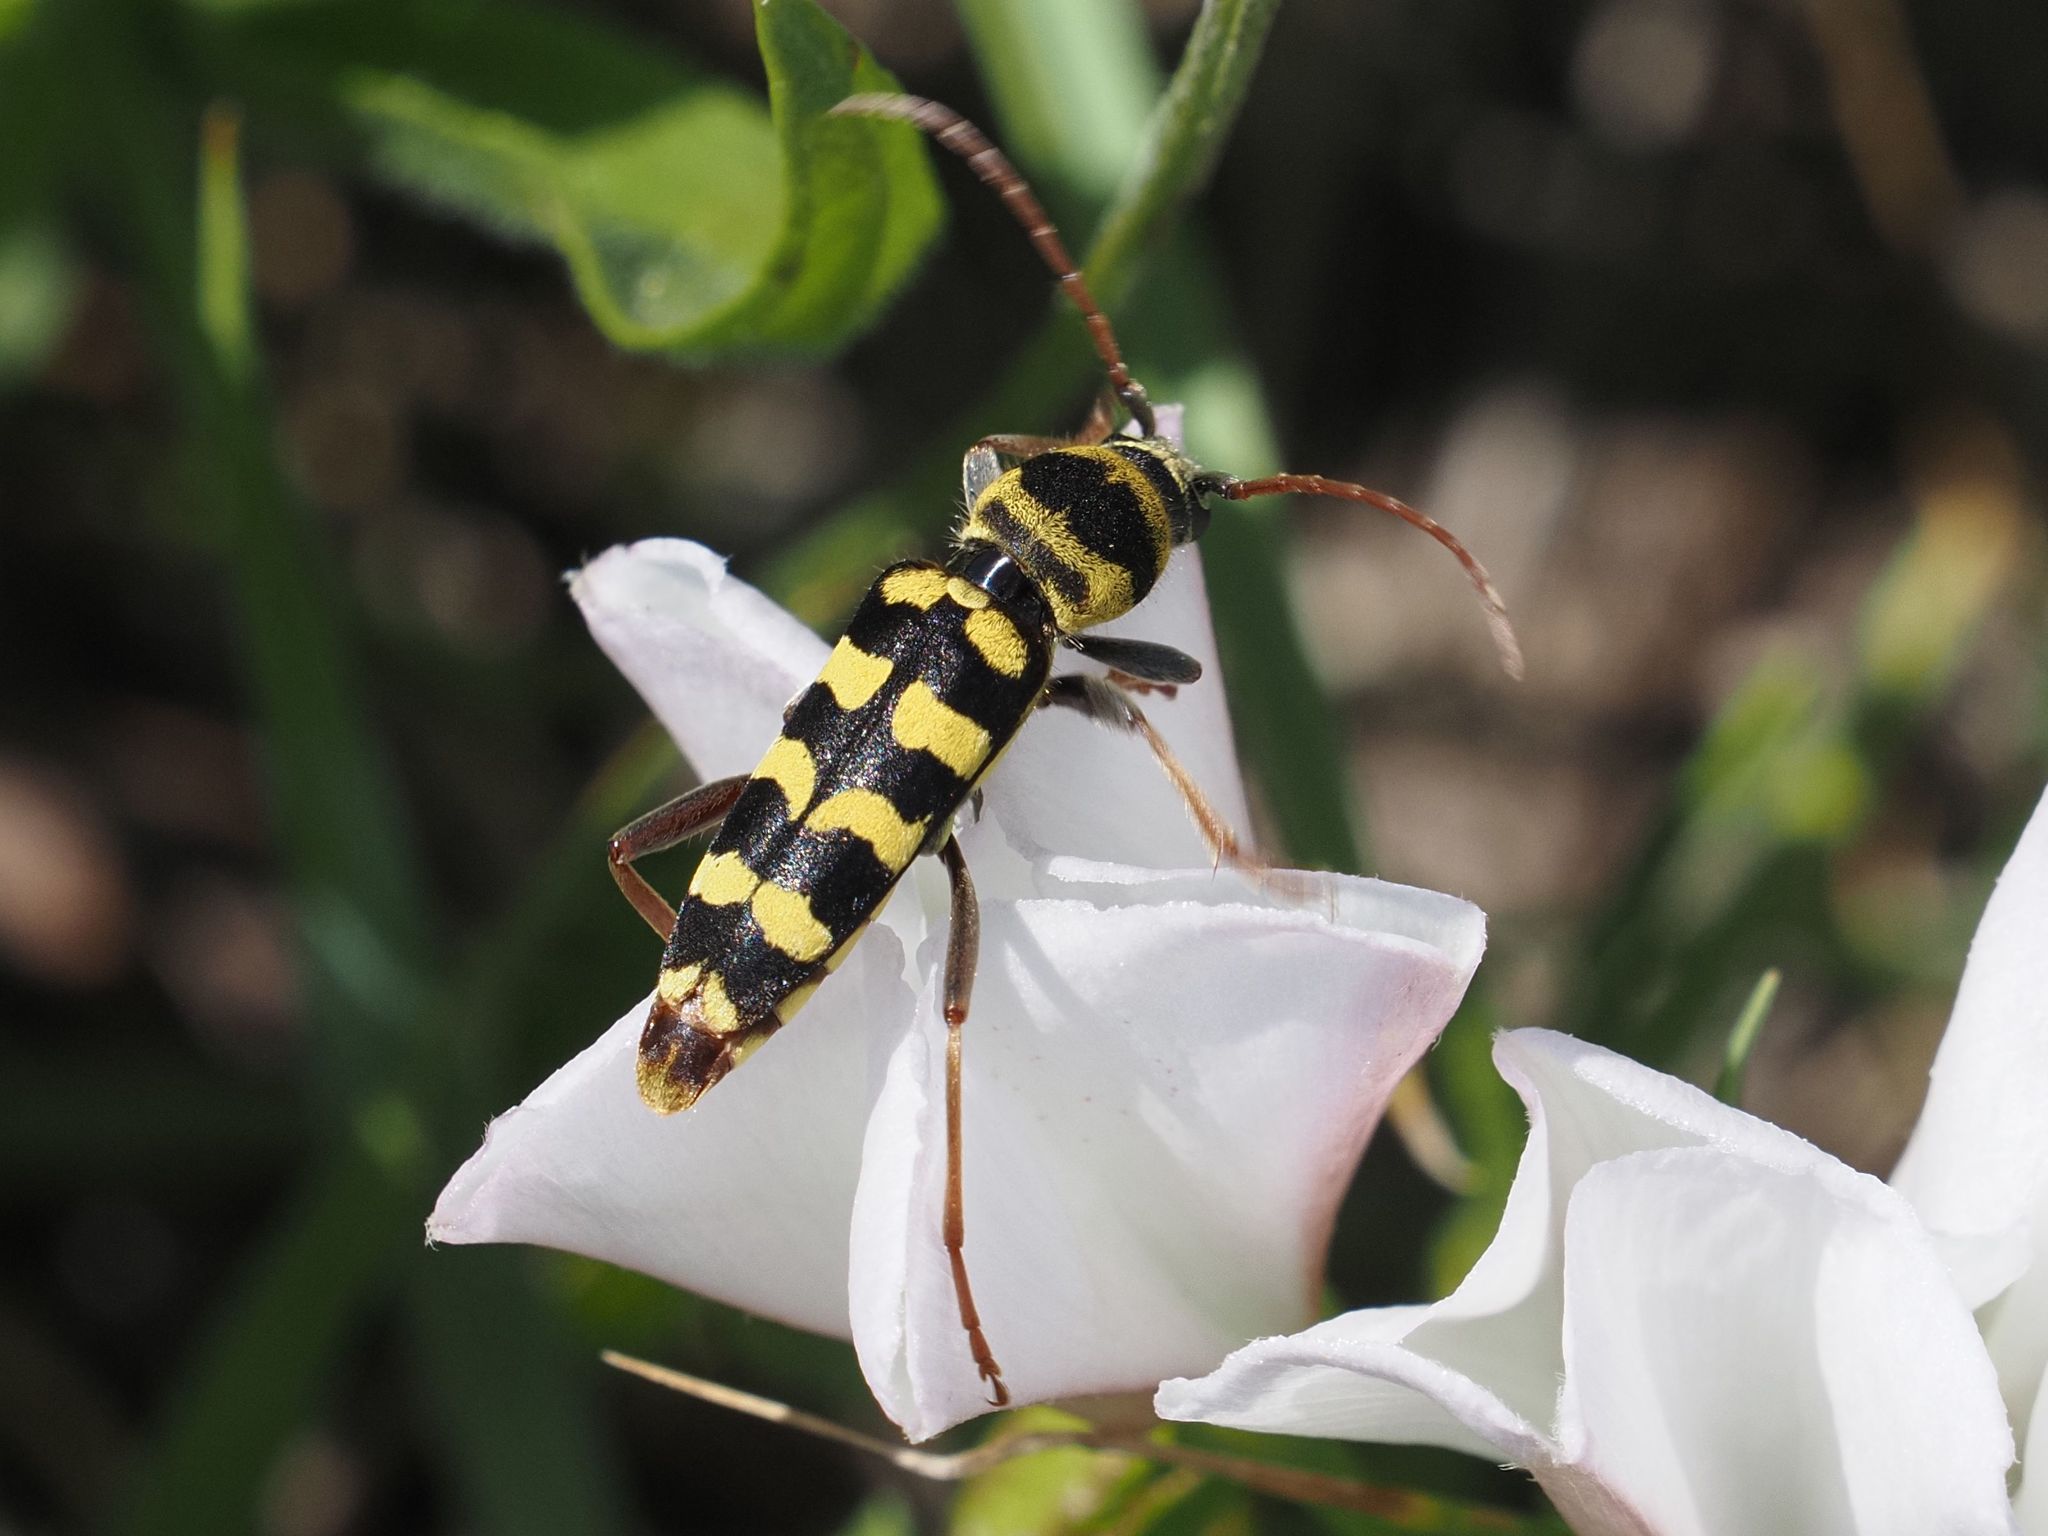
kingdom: Animalia
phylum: Arthropoda
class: Insecta
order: Coleoptera
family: Cerambycidae
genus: Plagionotus
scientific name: Plagionotus floralis
